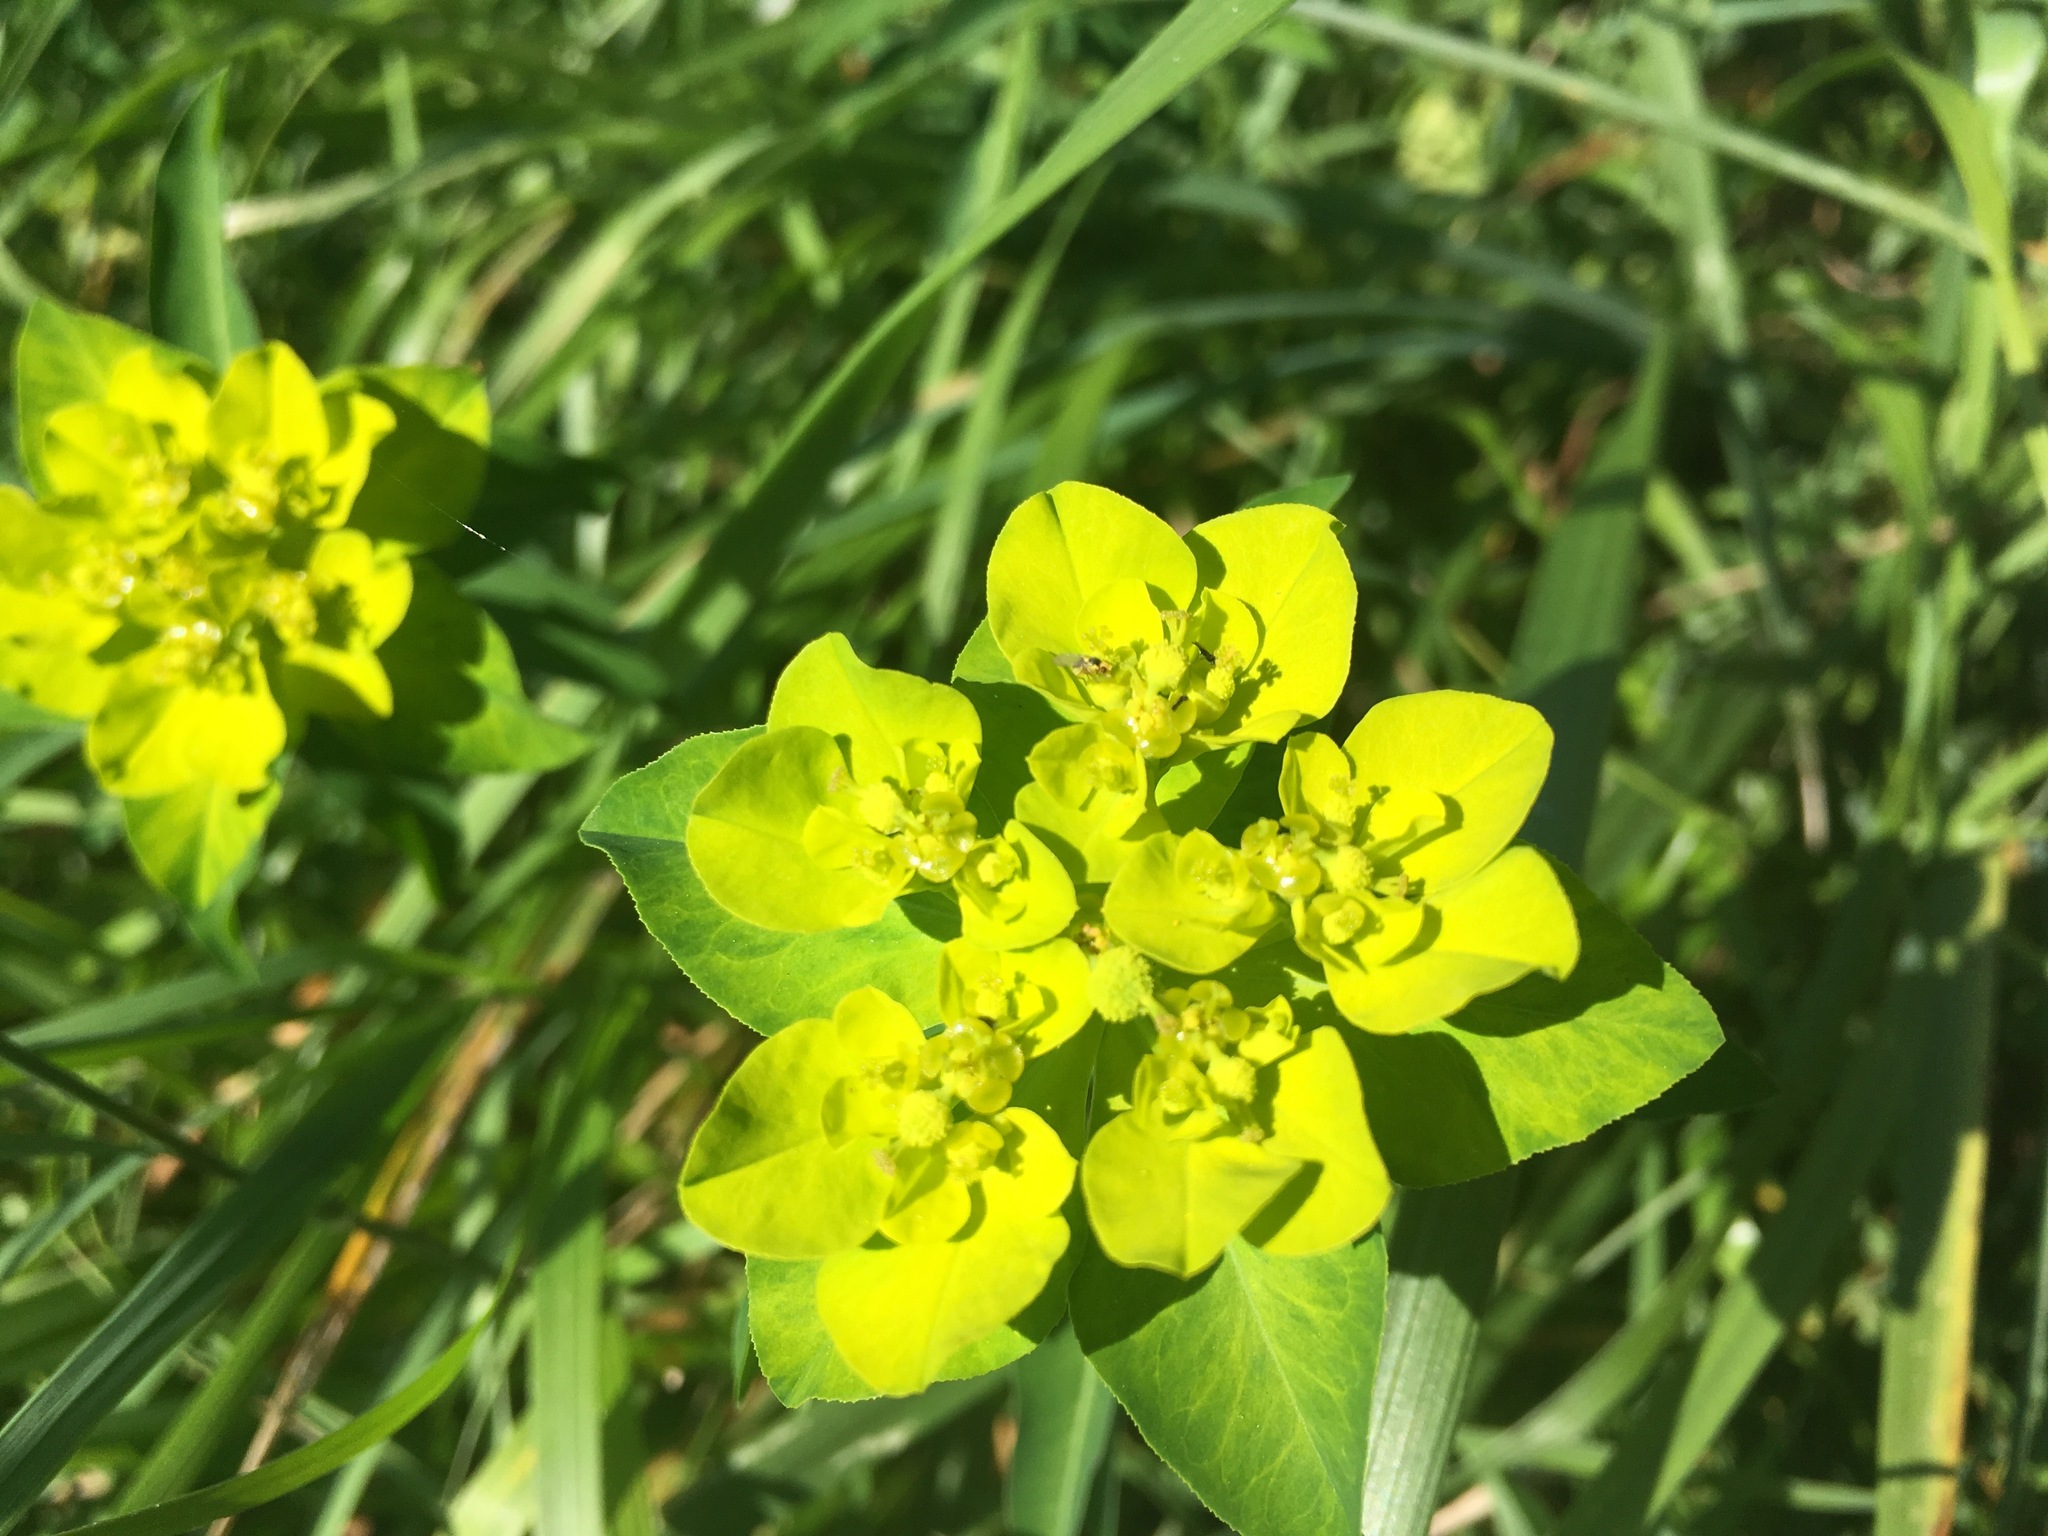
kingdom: Plantae
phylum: Tracheophyta
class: Magnoliopsida
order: Malpighiales
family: Euphorbiaceae
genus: Euphorbia
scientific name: Euphorbia flavicoma
